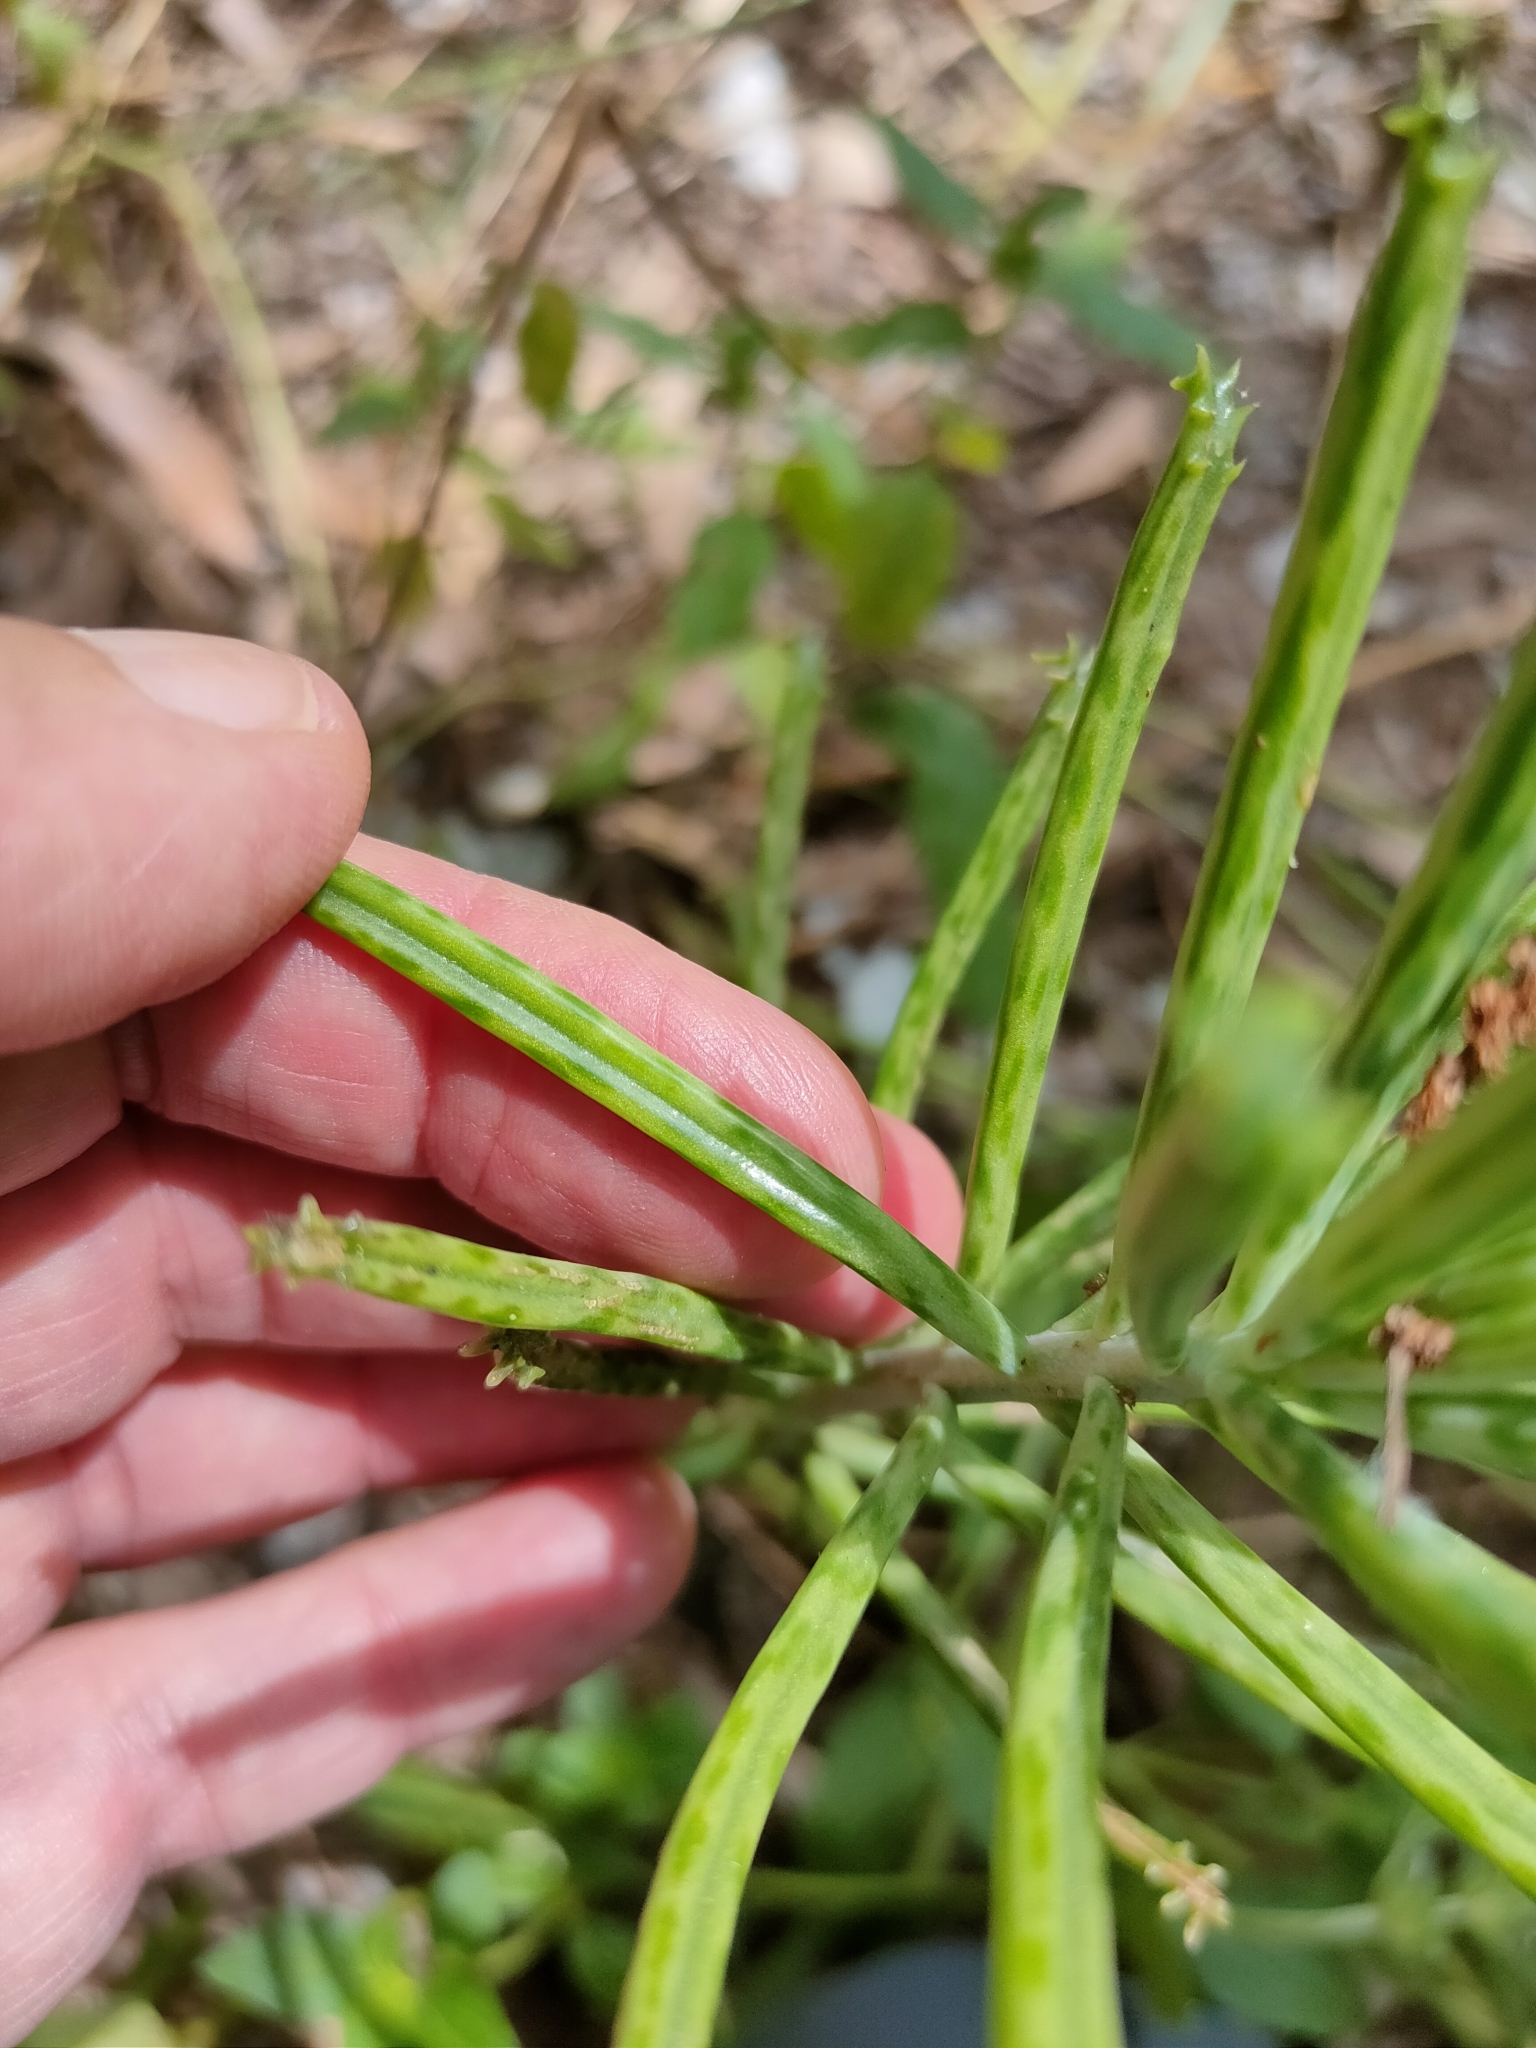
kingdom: Plantae
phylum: Tracheophyta
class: Magnoliopsida
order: Saxifragales
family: Crassulaceae
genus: Kalanchoe
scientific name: Kalanchoe delagoensis
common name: Chandelier plant
